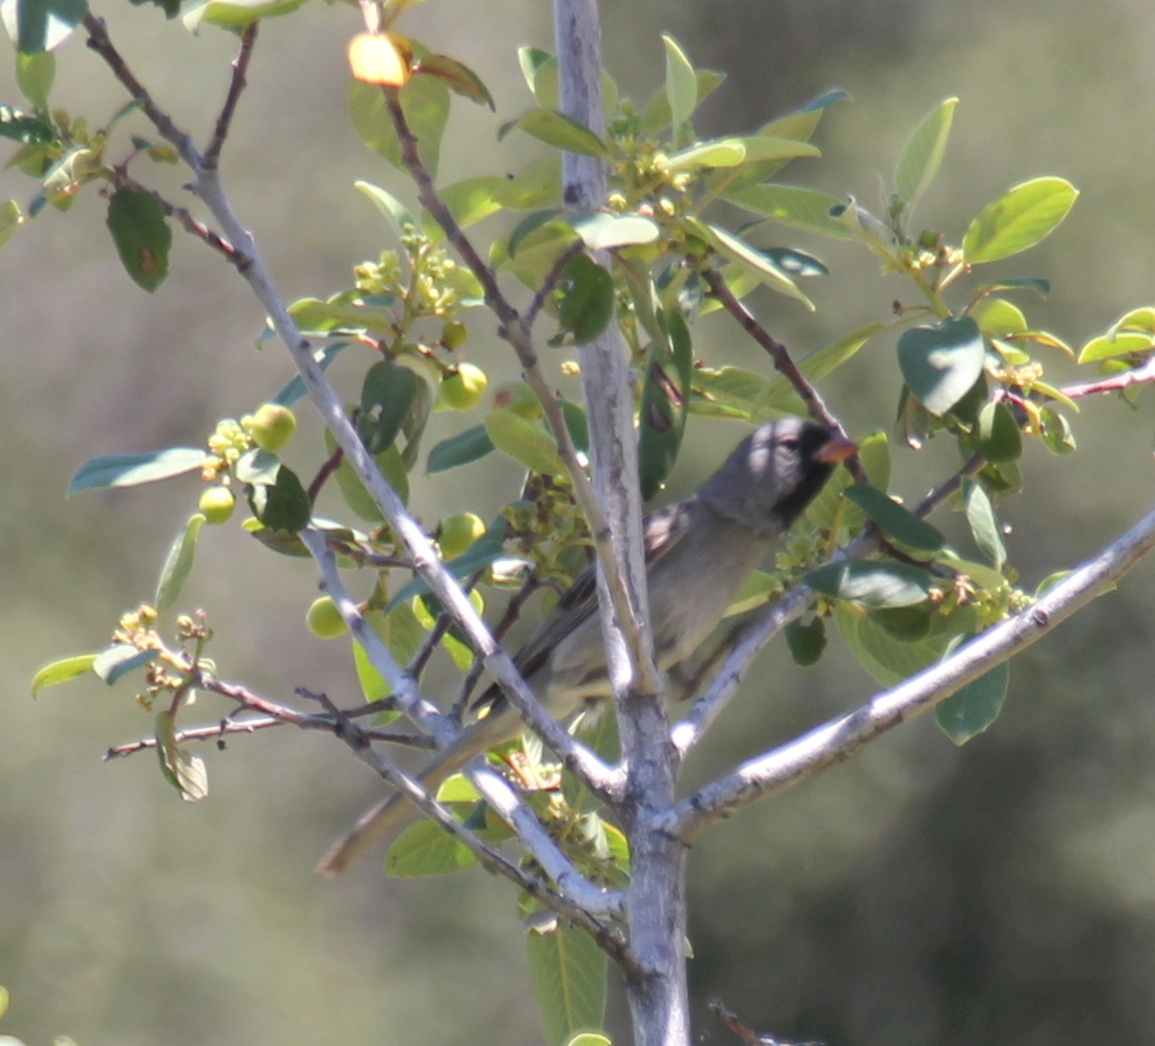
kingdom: Animalia
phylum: Chordata
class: Aves
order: Passeriformes
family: Passerellidae
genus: Spizella
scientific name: Spizella atrogularis
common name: Black-chinned sparrow
